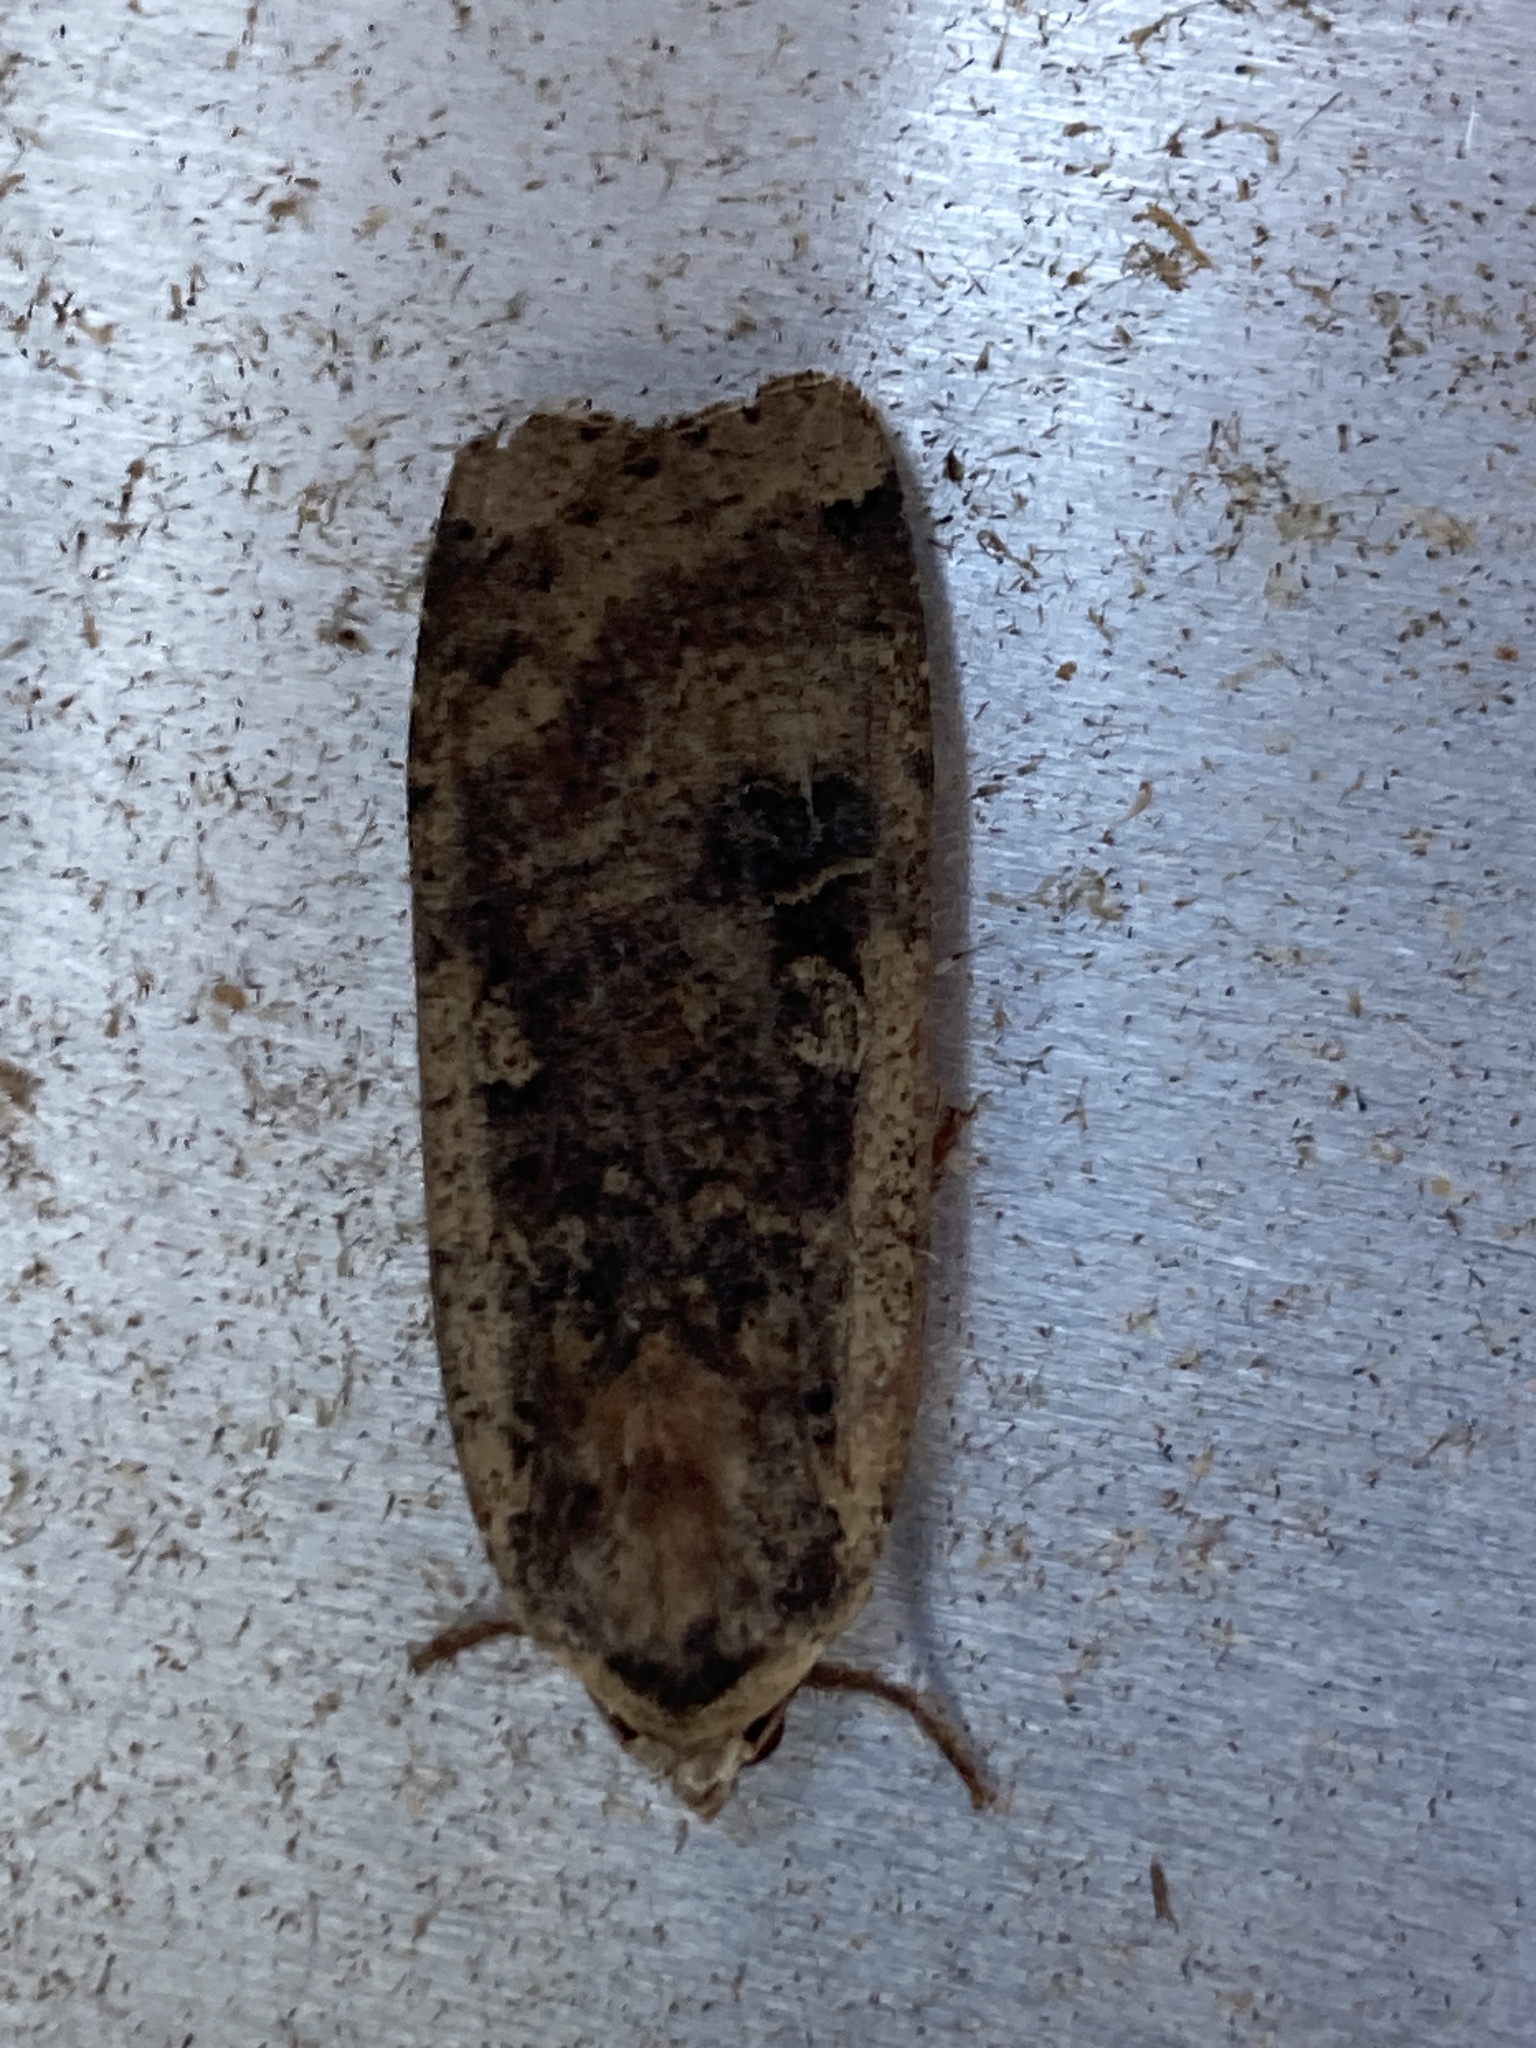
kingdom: Animalia
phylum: Arthropoda
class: Insecta
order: Lepidoptera
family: Noctuidae
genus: Noctua
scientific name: Noctua pronuba
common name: Large yellow underwing
